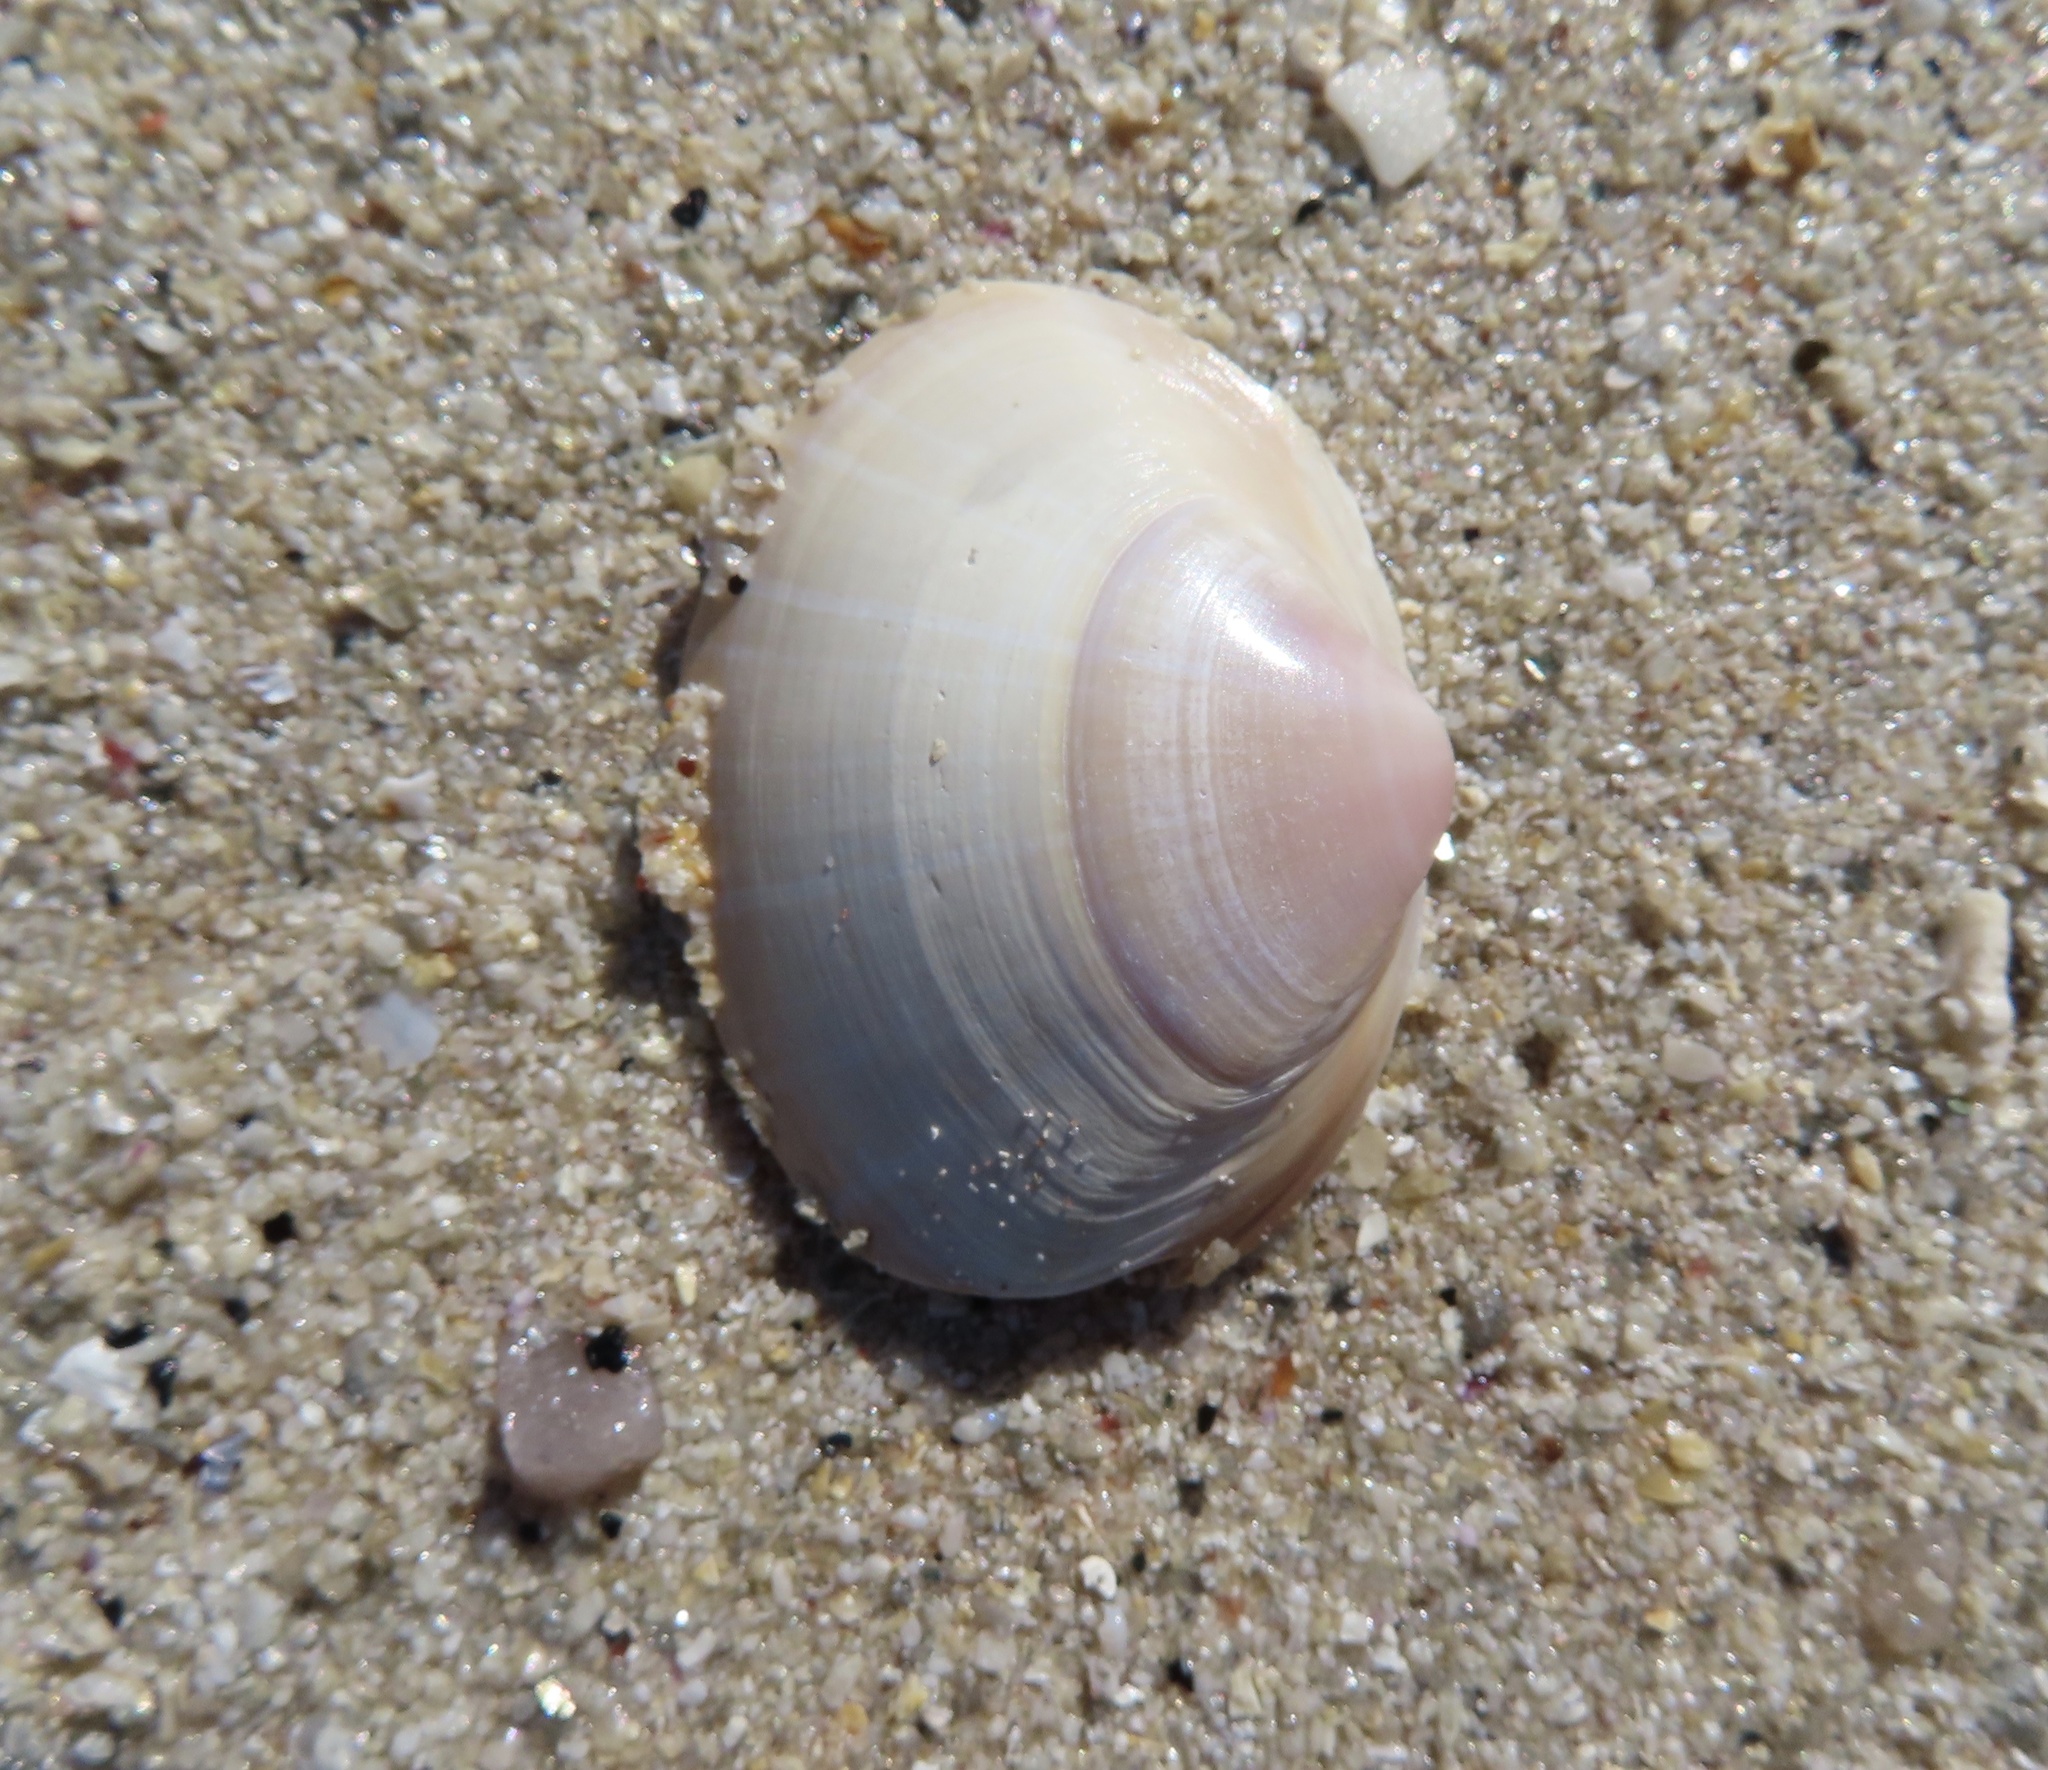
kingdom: Animalia
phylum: Mollusca
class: Bivalvia
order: Venerida
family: Mactridae
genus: Mactra
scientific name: Mactra stultorum
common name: Rayed trough shell
